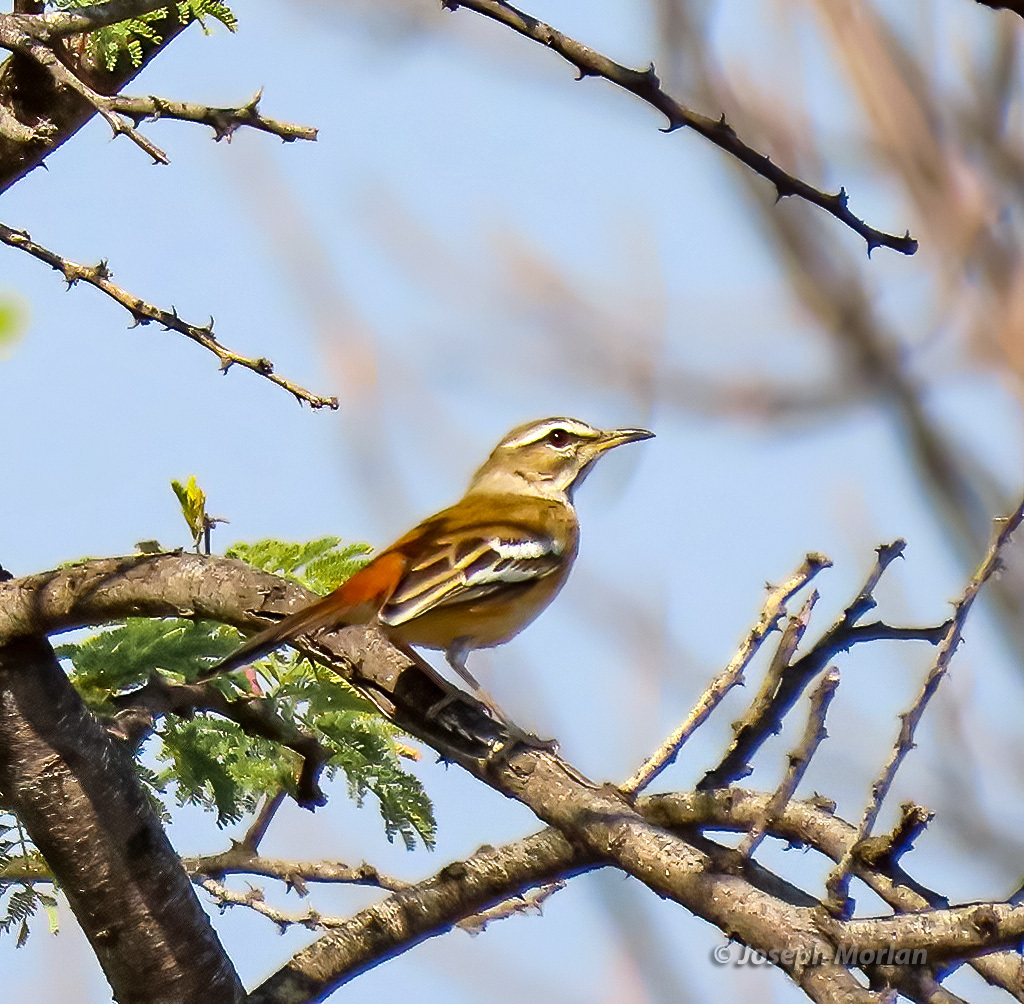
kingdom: Animalia
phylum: Chordata
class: Aves
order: Passeriformes
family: Muscicapidae
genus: Erythropygia
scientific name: Erythropygia leucophrys
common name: White-browed scrub robin
